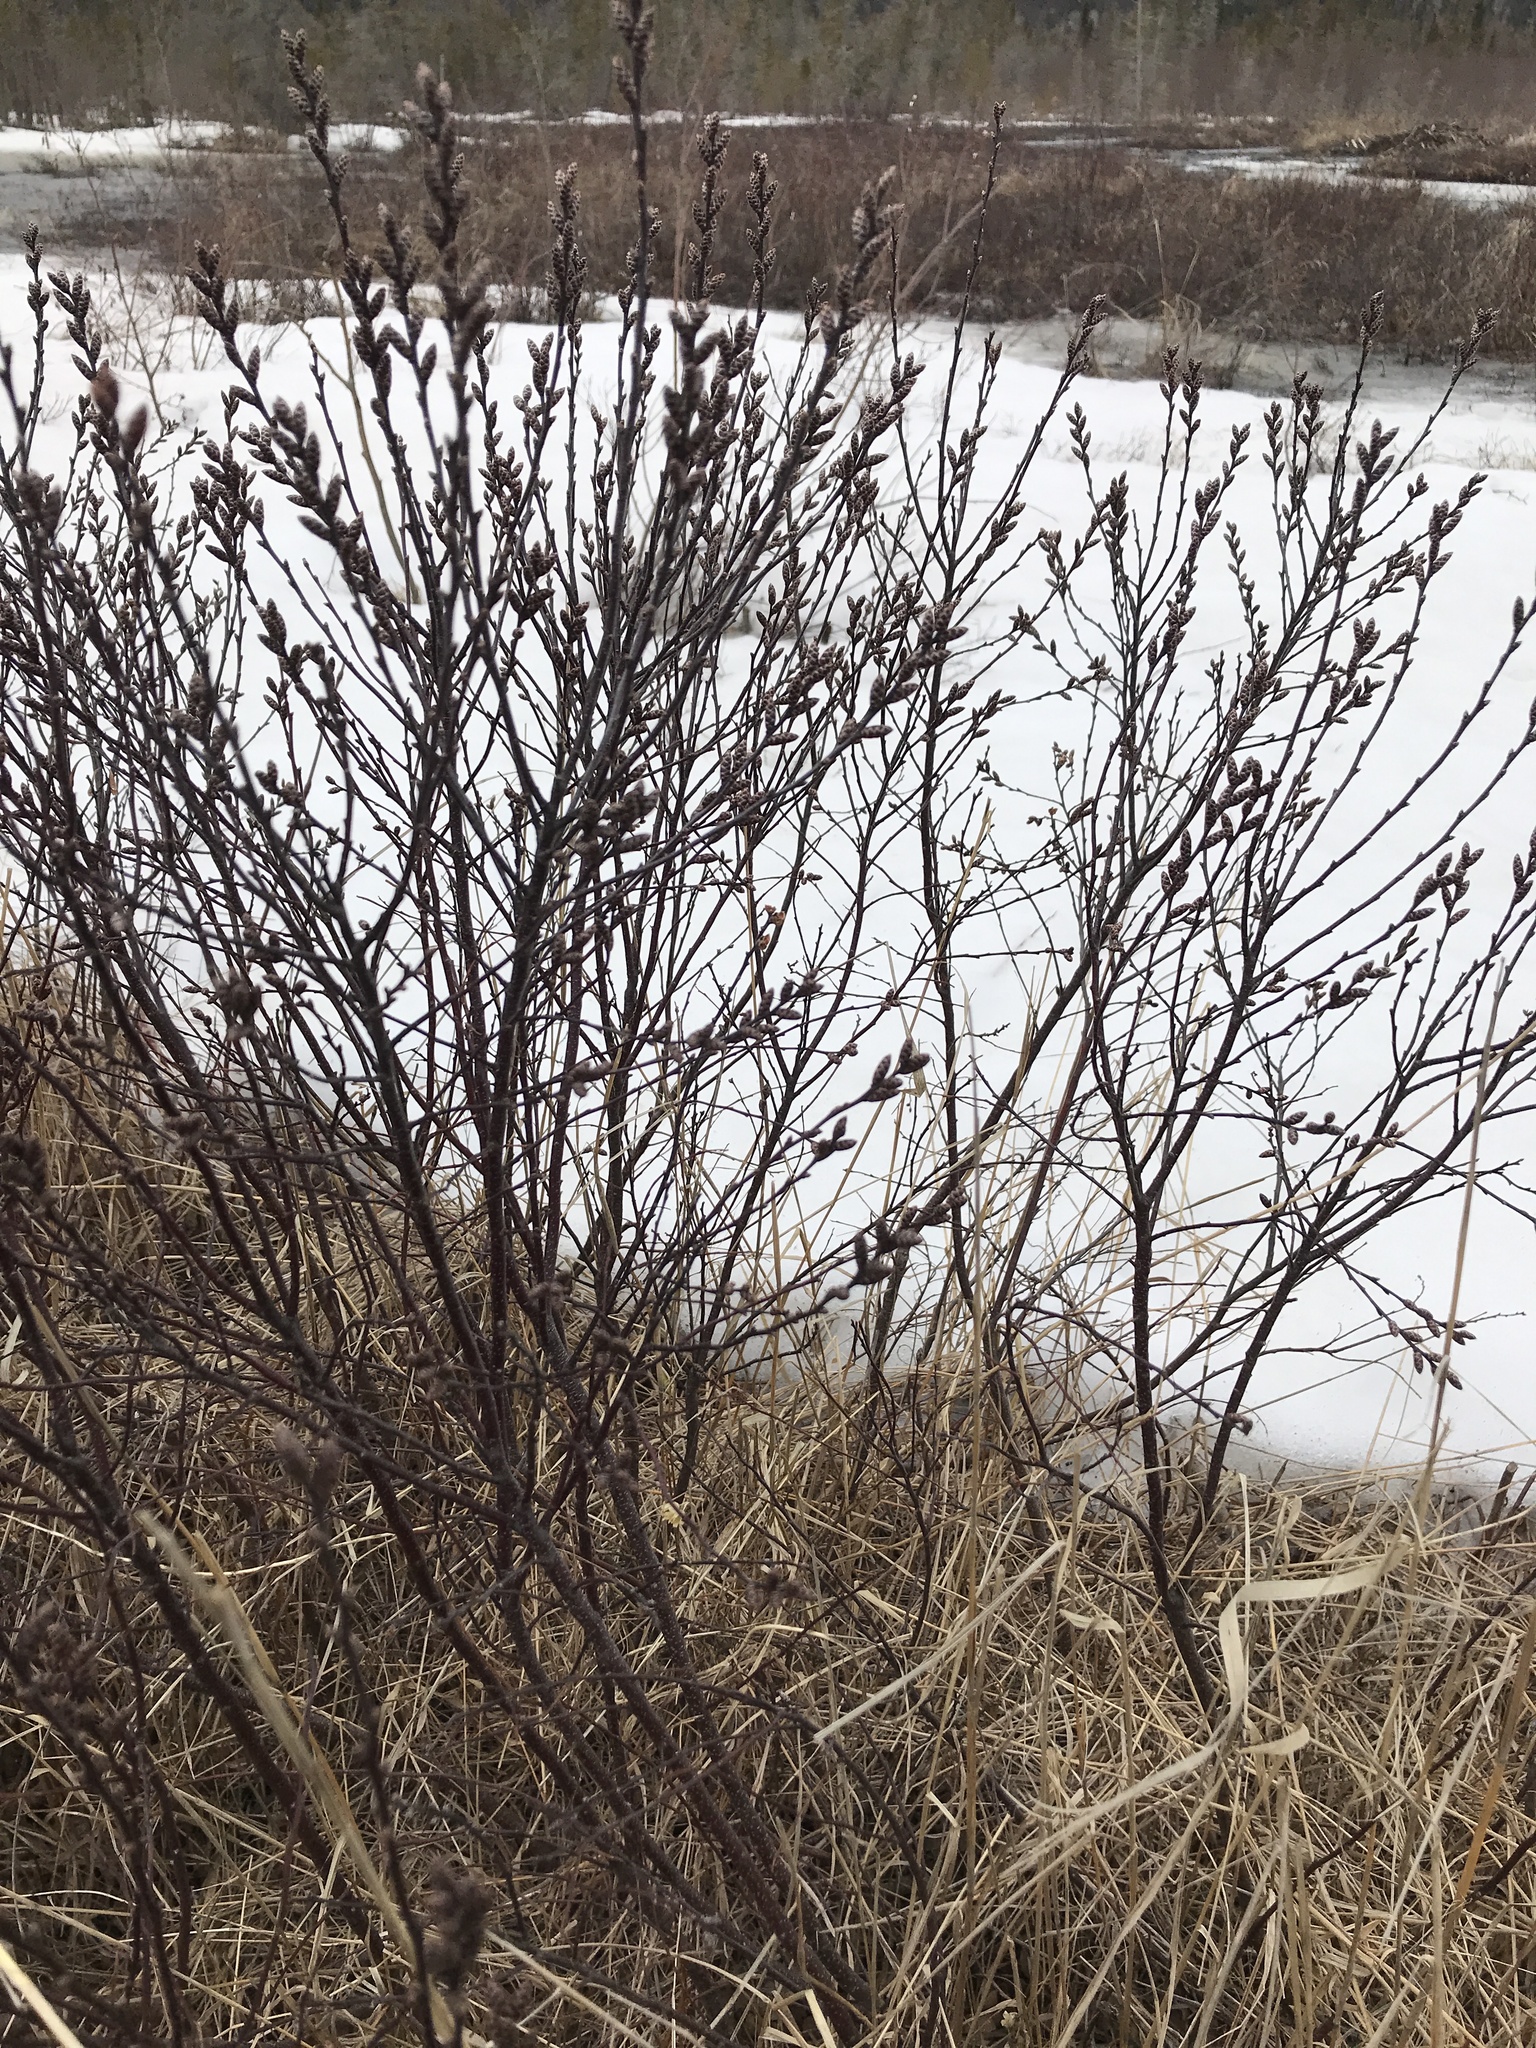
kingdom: Plantae
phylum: Tracheophyta
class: Magnoliopsida
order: Fagales
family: Myricaceae
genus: Myrica
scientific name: Myrica gale
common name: Sweet gale
